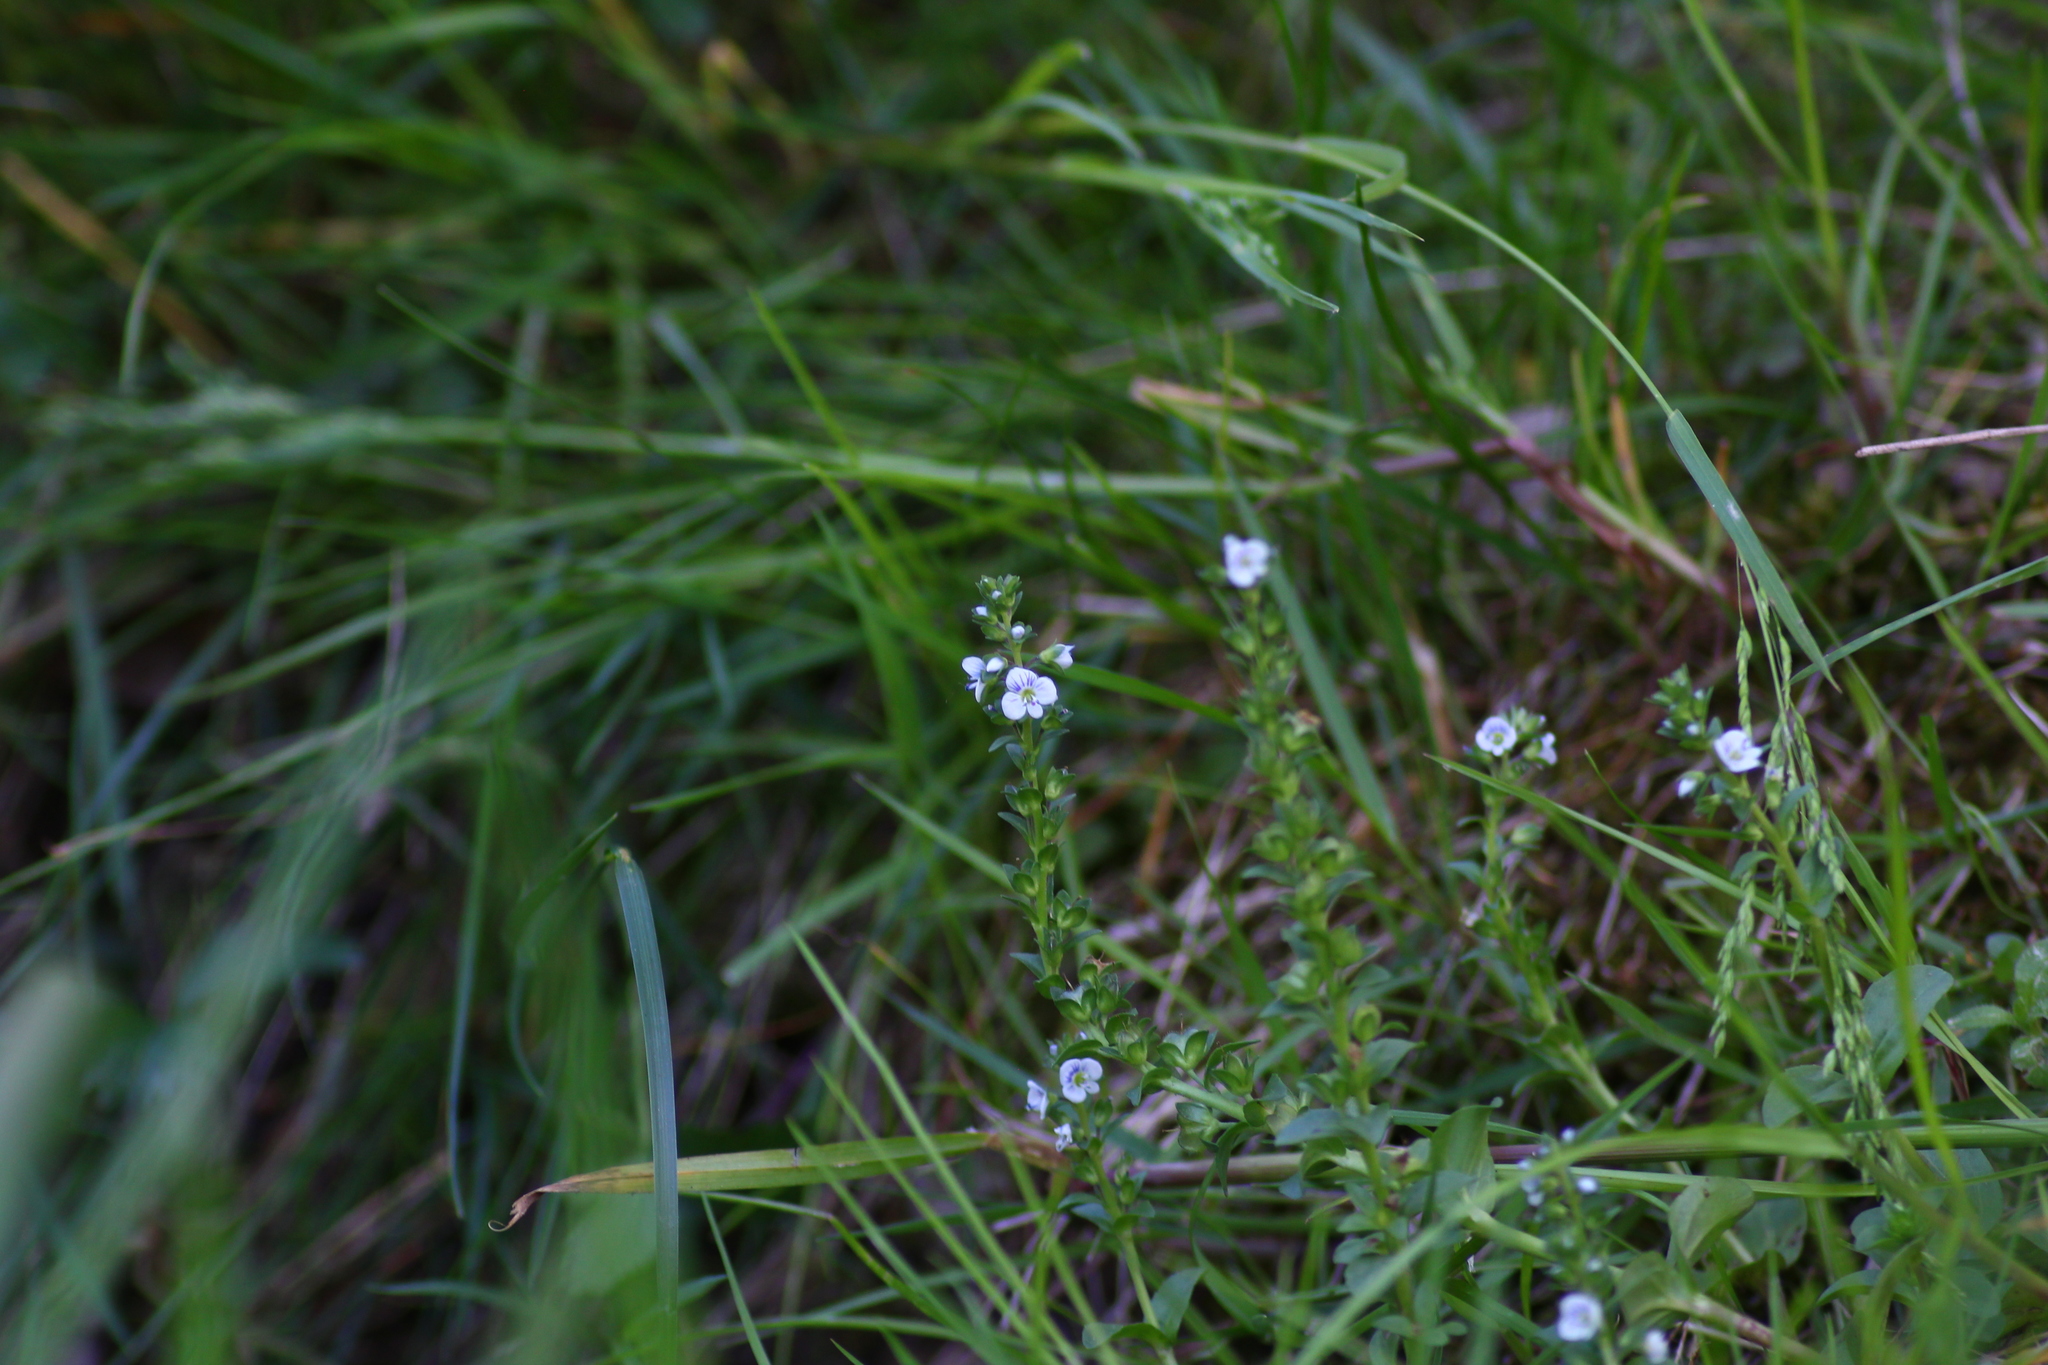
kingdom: Plantae
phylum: Tracheophyta
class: Magnoliopsida
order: Lamiales
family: Plantaginaceae
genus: Veronica
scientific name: Veronica serpyllifolia
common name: Thyme-leaved speedwell
